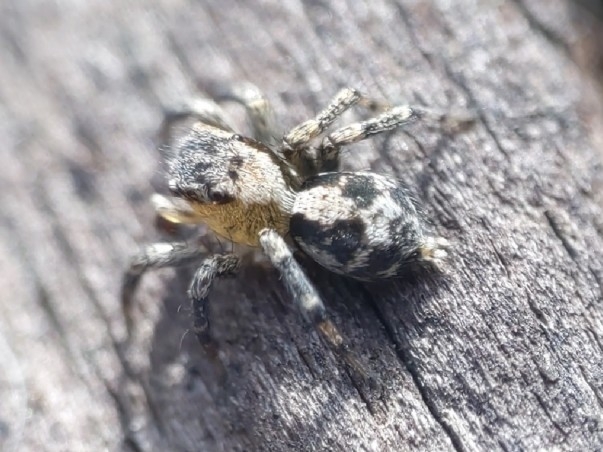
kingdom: Animalia
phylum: Arthropoda
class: Arachnida
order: Araneae
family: Salticidae
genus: Naphrys
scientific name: Naphrys pulex
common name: Flea jumping spider
